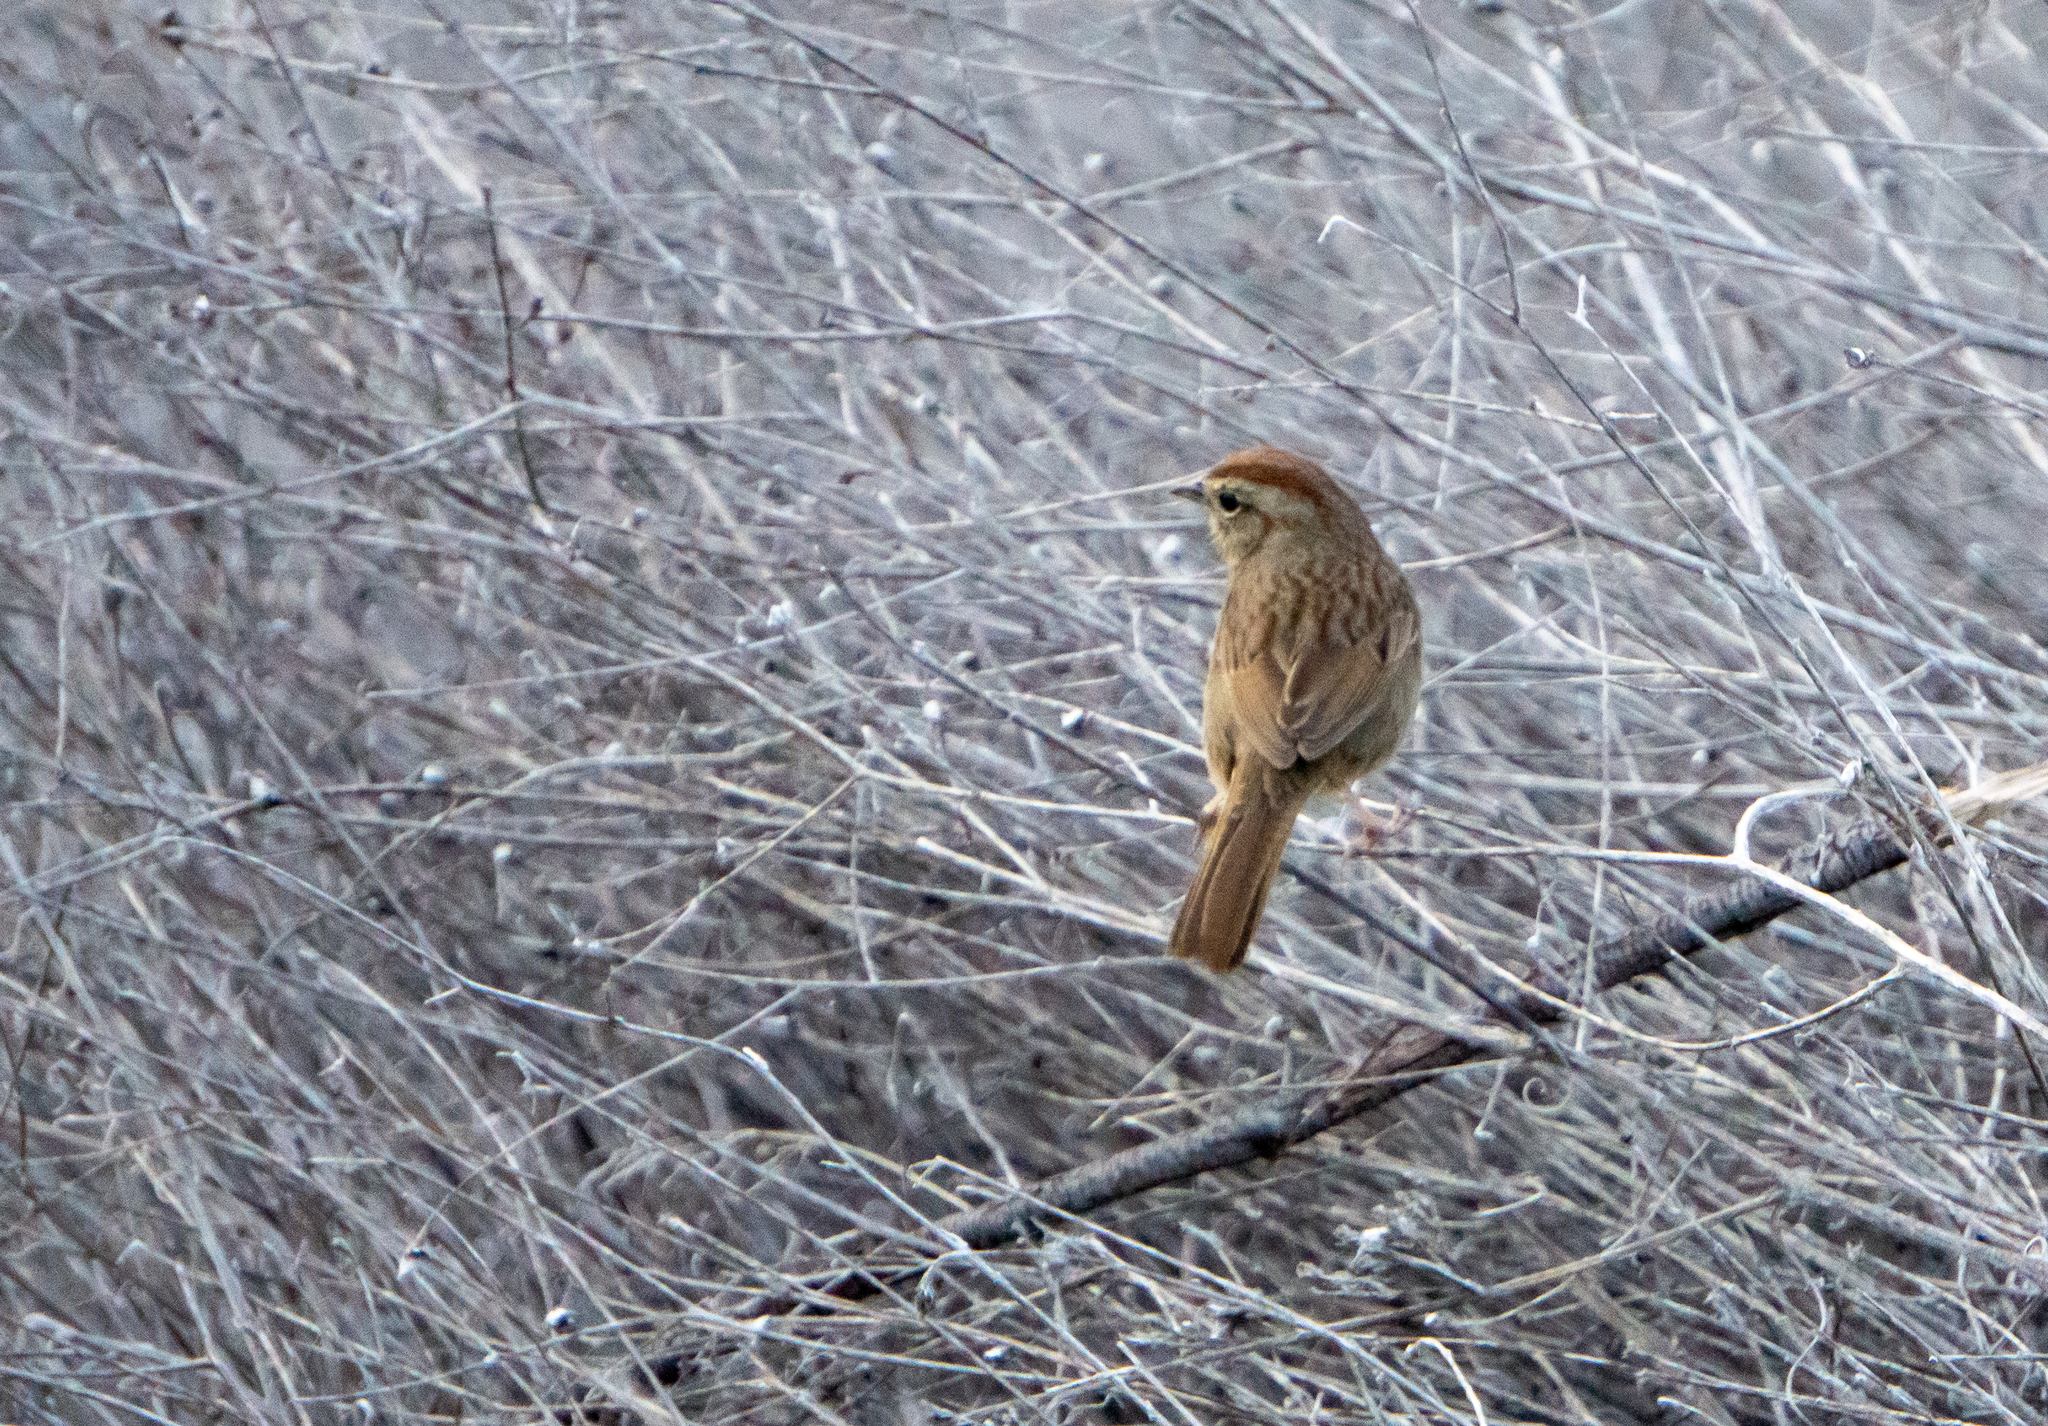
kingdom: Animalia
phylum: Chordata
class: Aves
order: Passeriformes
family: Passerellidae
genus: Aimophila
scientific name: Aimophila ruficeps
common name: Rufous-crowned sparrow
